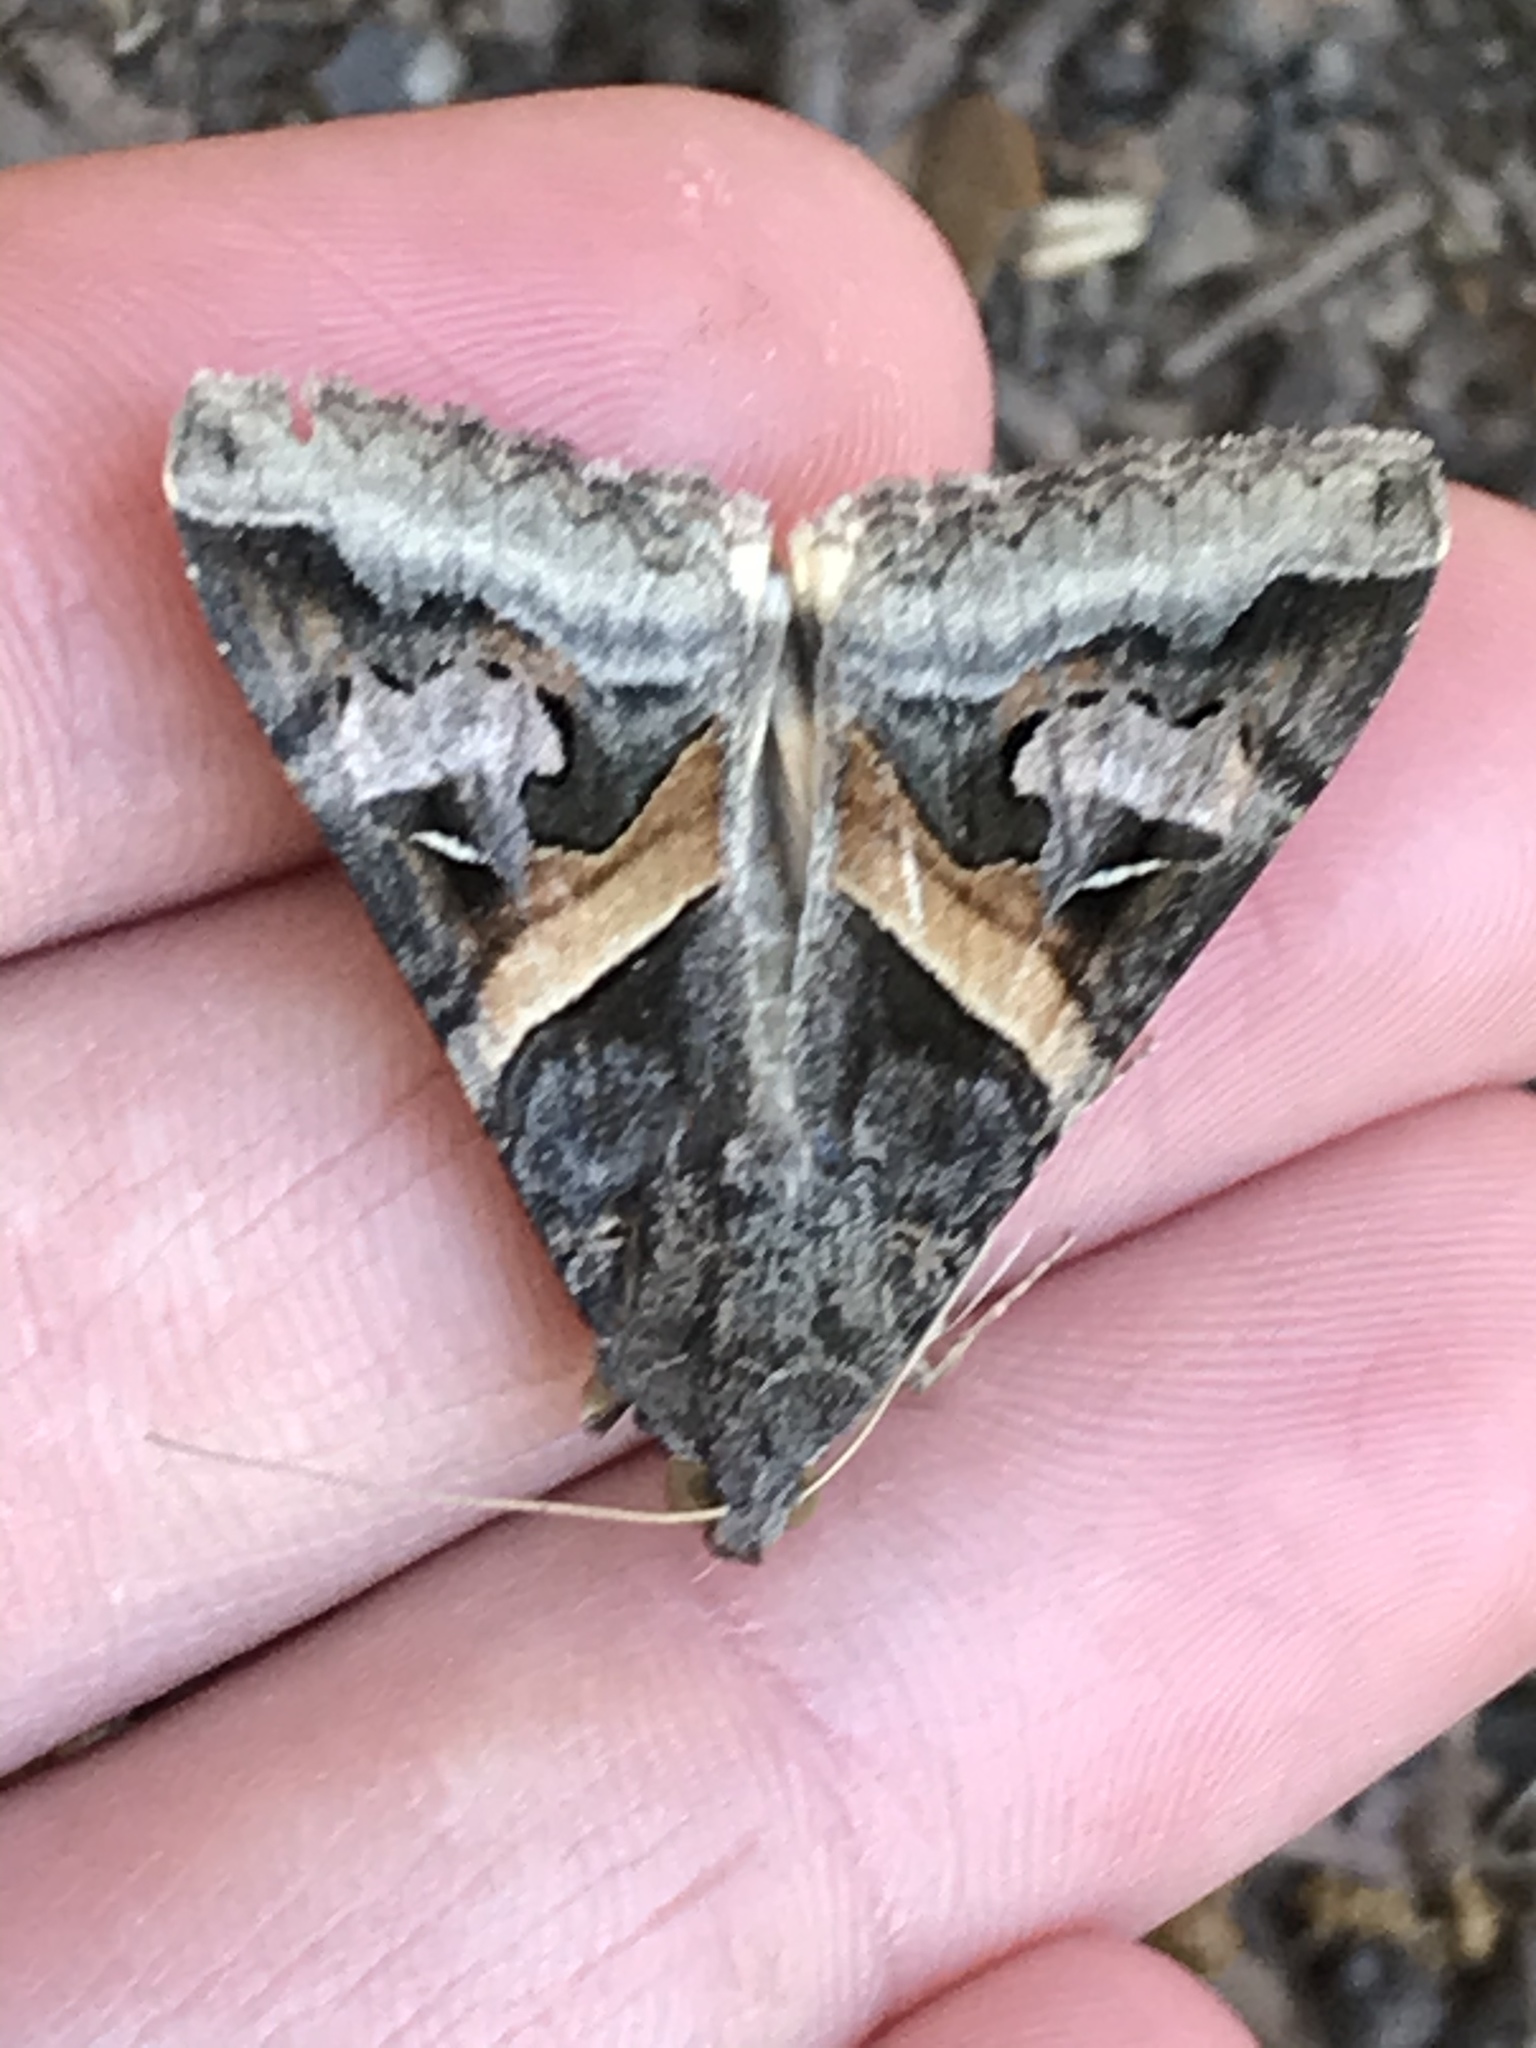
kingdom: Animalia
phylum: Arthropoda
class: Insecta
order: Lepidoptera
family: Erebidae
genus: Melipotis
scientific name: Melipotis indomita
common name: Moth
